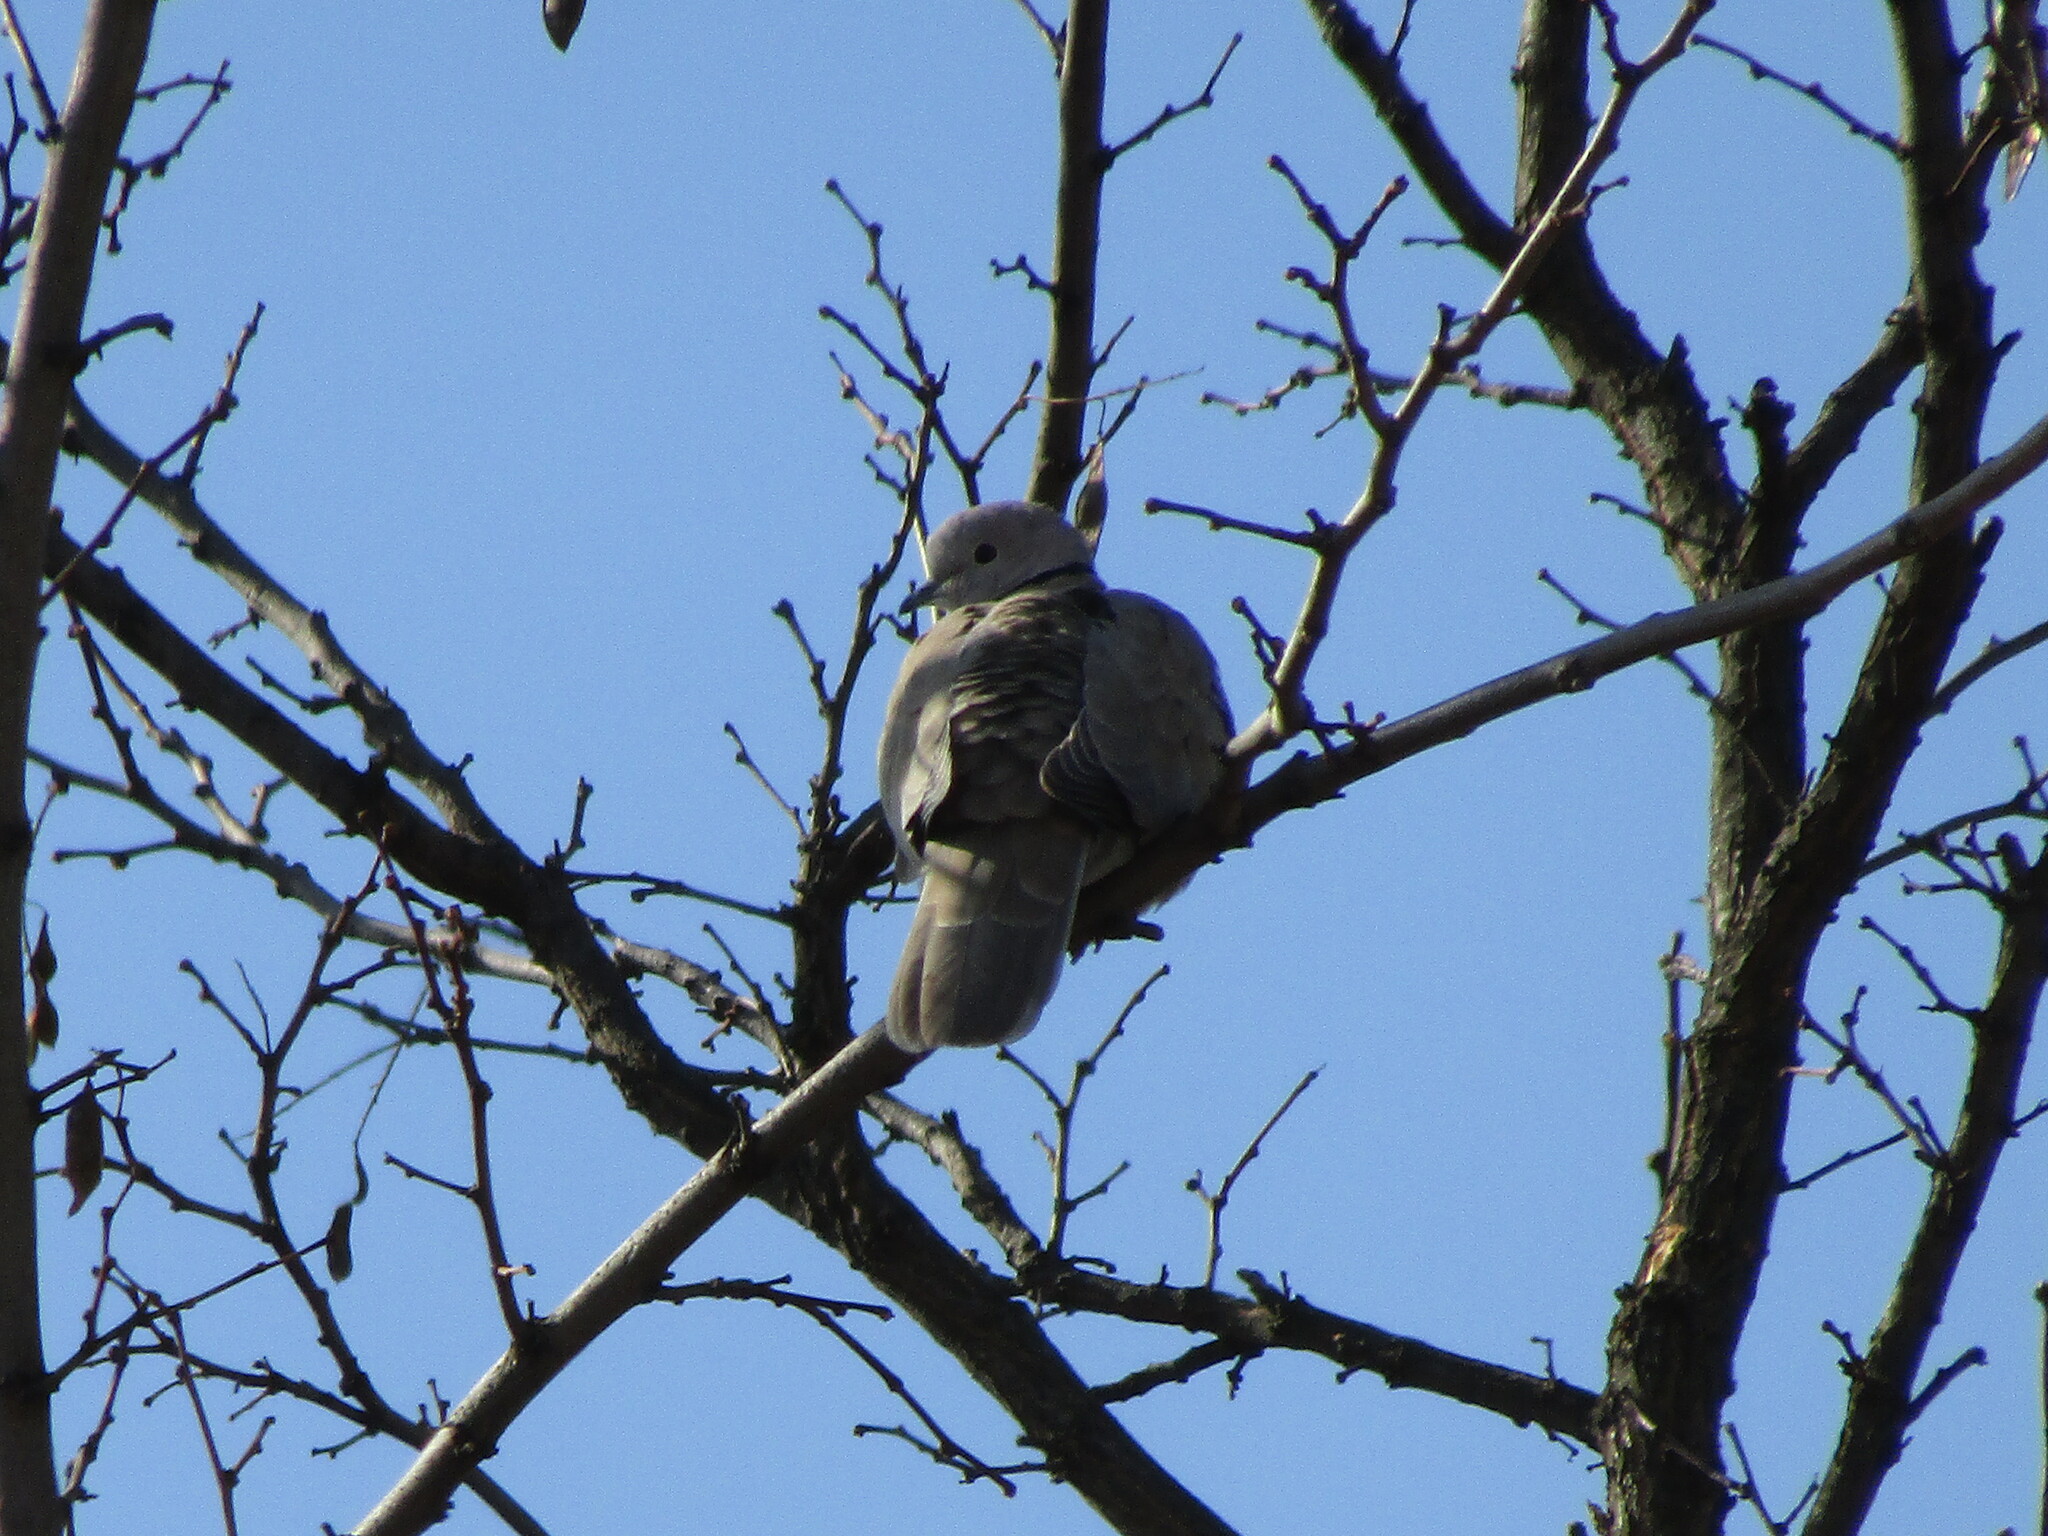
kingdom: Animalia
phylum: Chordata
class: Aves
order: Columbiformes
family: Columbidae
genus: Streptopelia
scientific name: Streptopelia decaocto
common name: Eurasian collared dove
